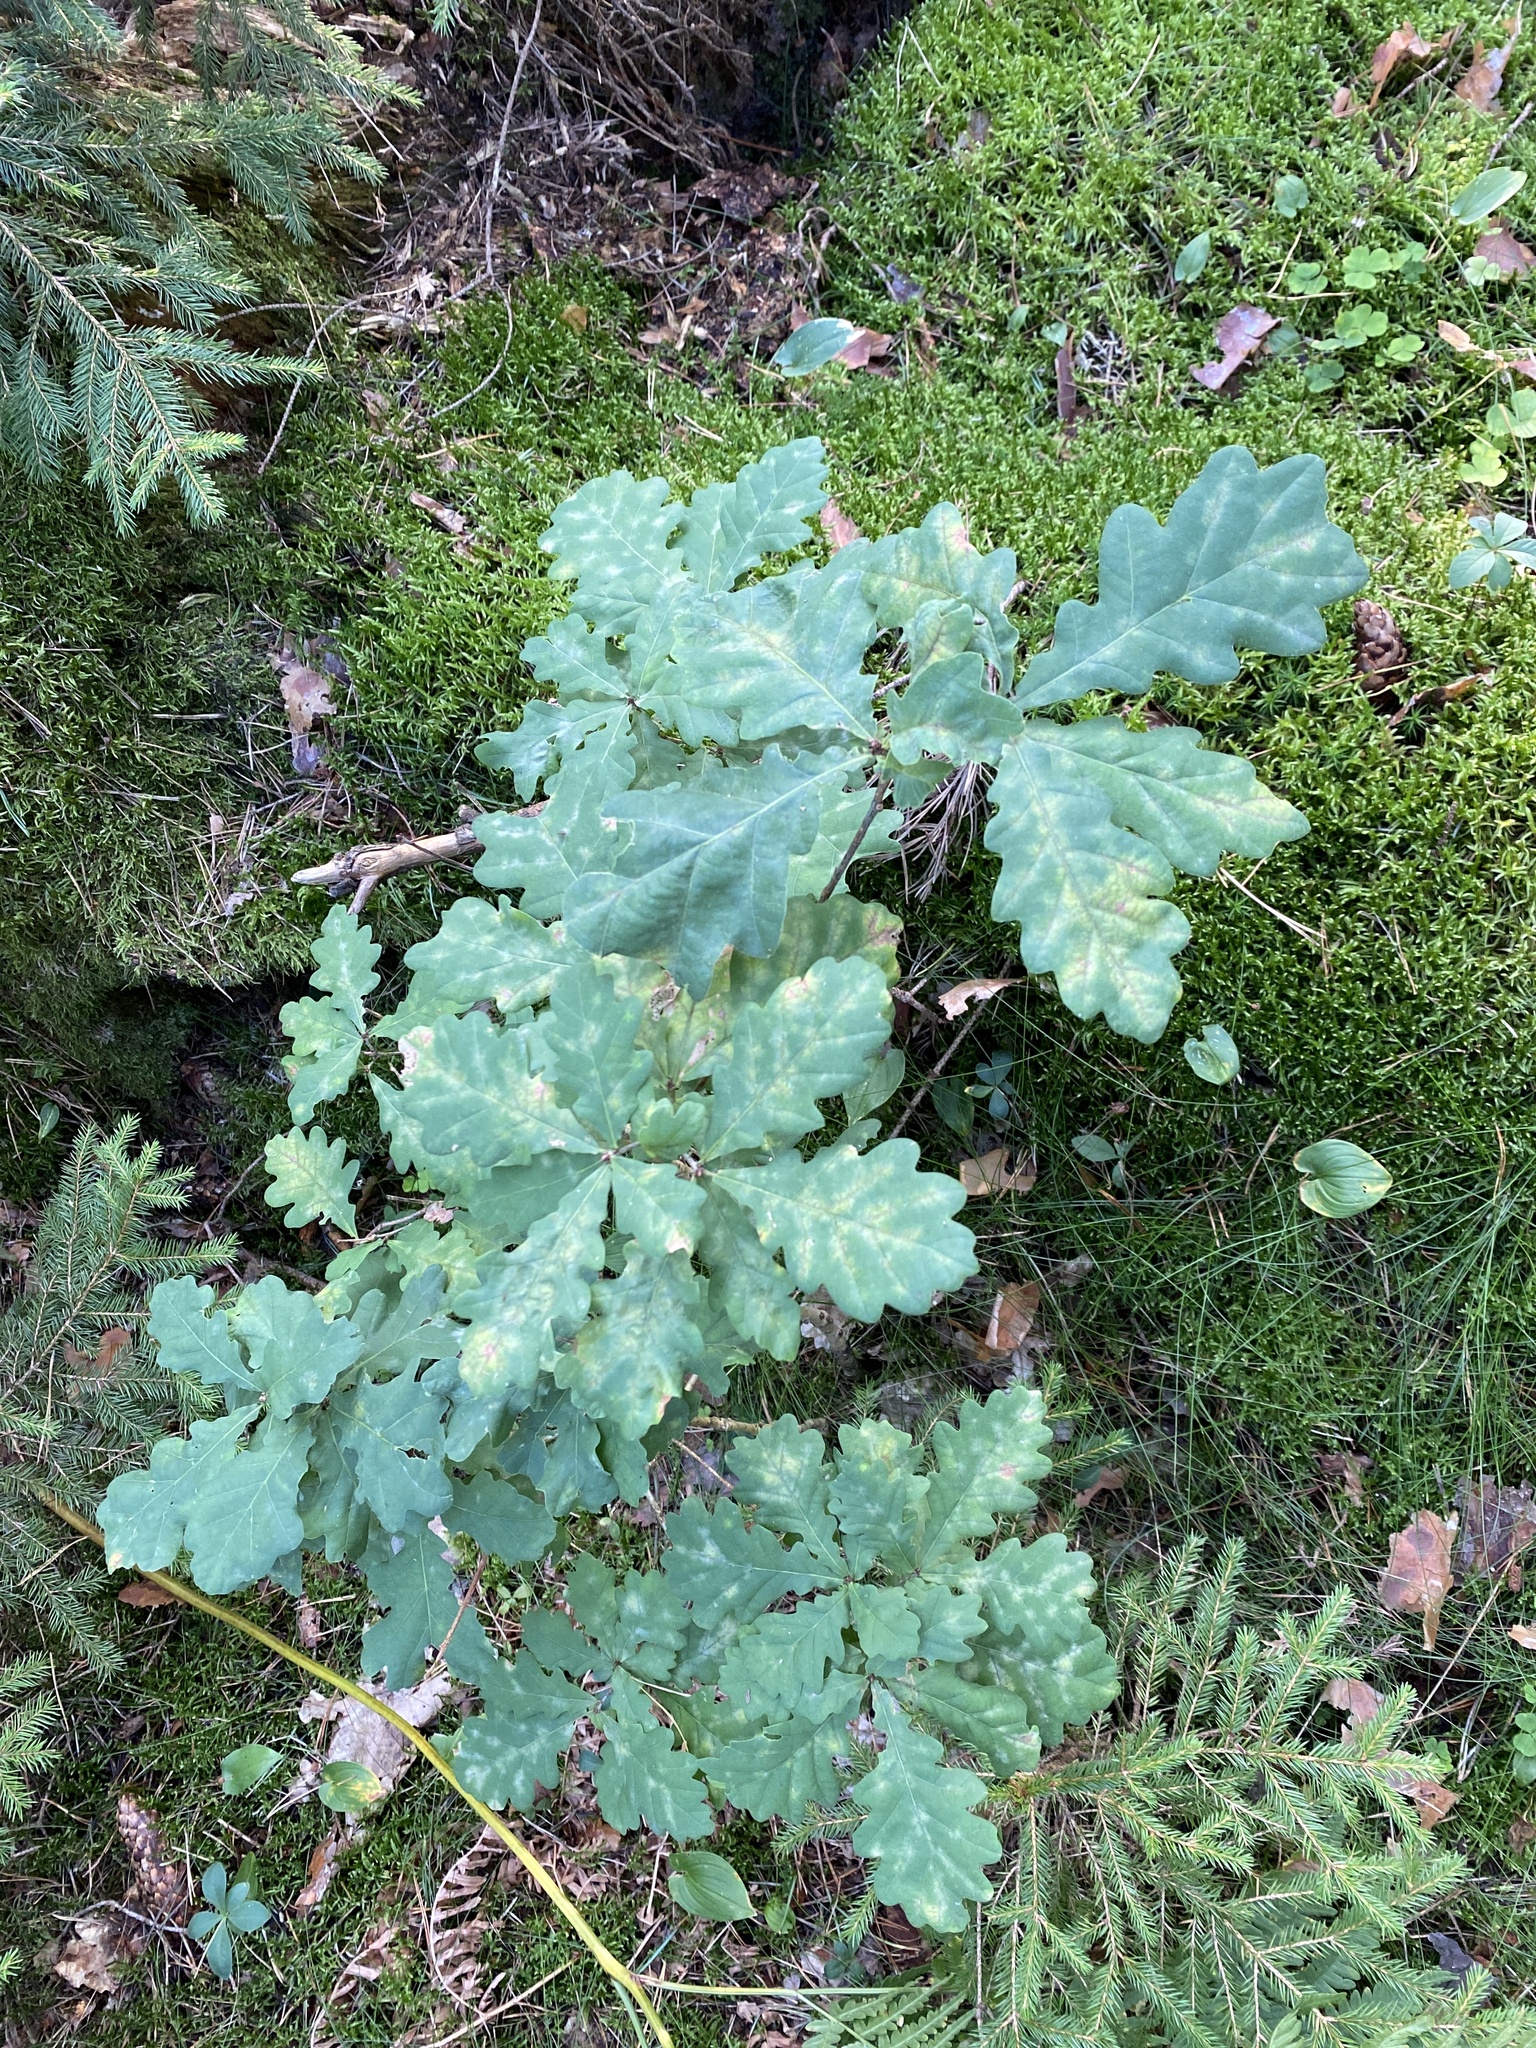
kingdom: Plantae
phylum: Tracheophyta
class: Magnoliopsida
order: Fagales
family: Fagaceae
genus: Quercus
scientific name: Quercus robur
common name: Pedunculate oak
